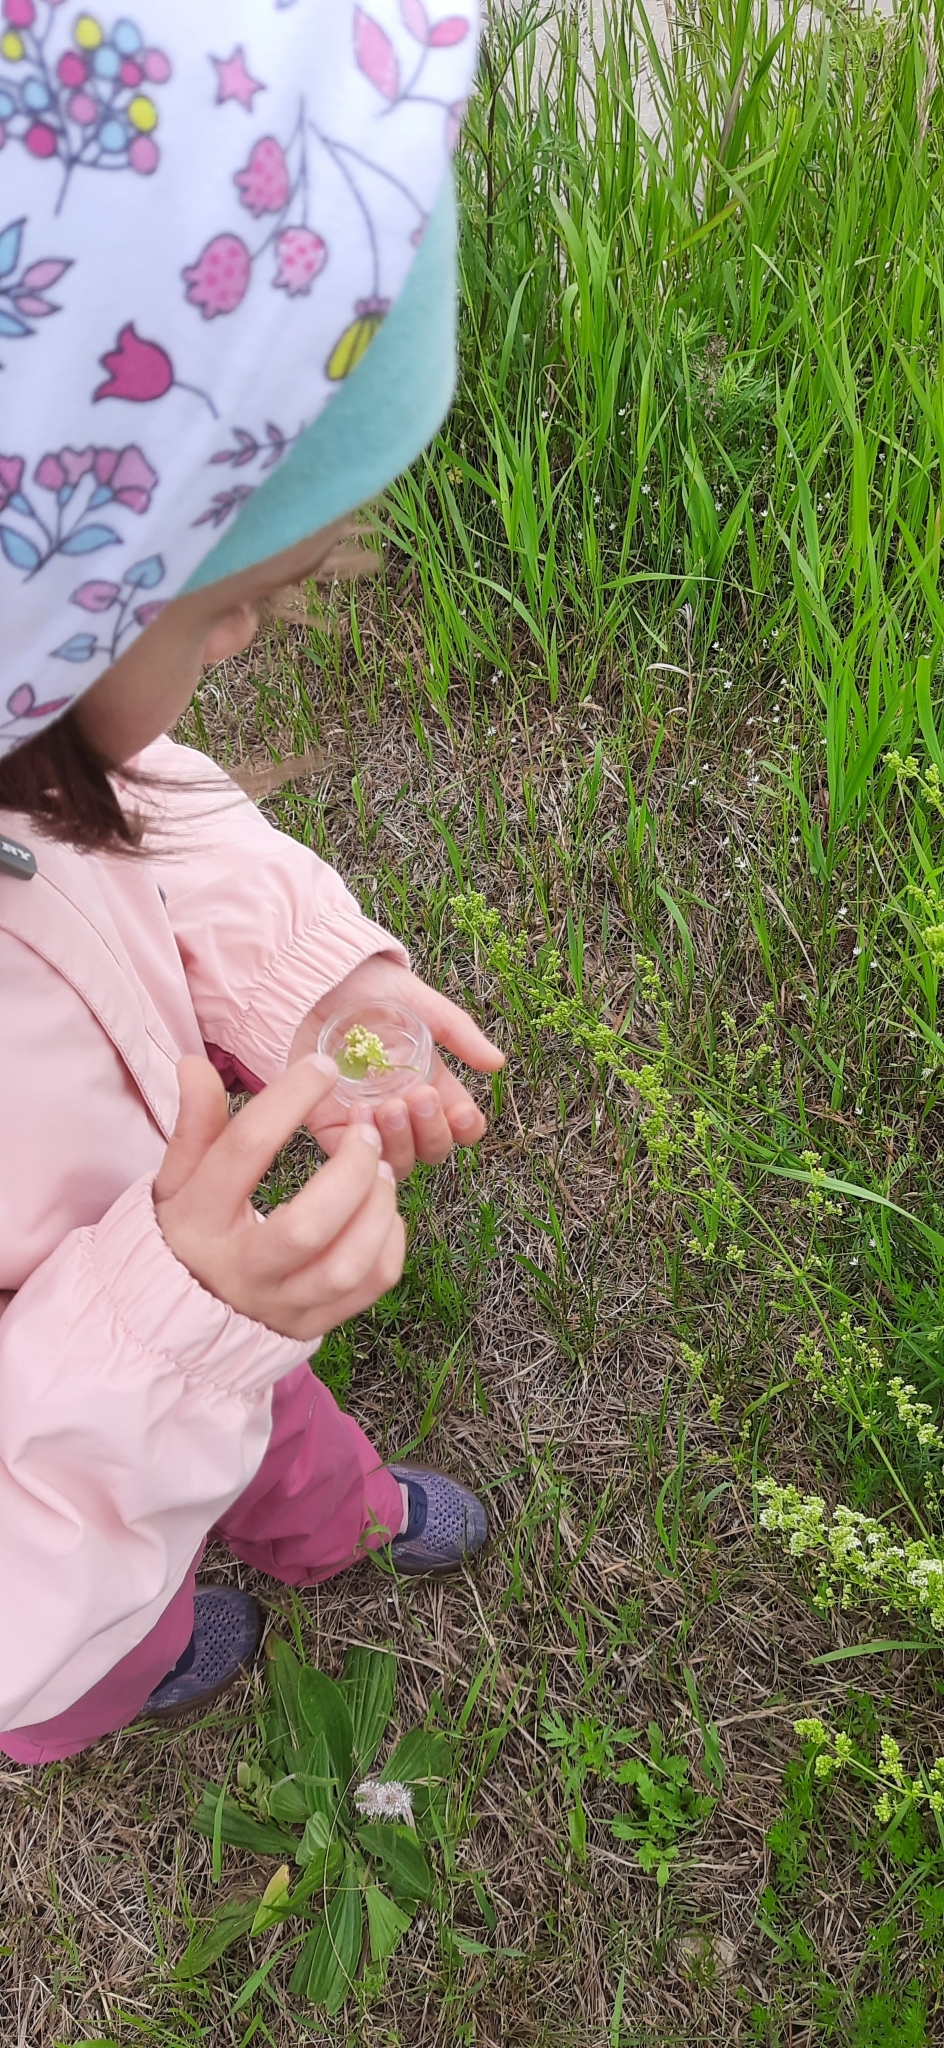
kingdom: Plantae
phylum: Tracheophyta
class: Magnoliopsida
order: Gentianales
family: Rubiaceae
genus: Galium
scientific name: Galium mollugo
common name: Hedge bedstraw
